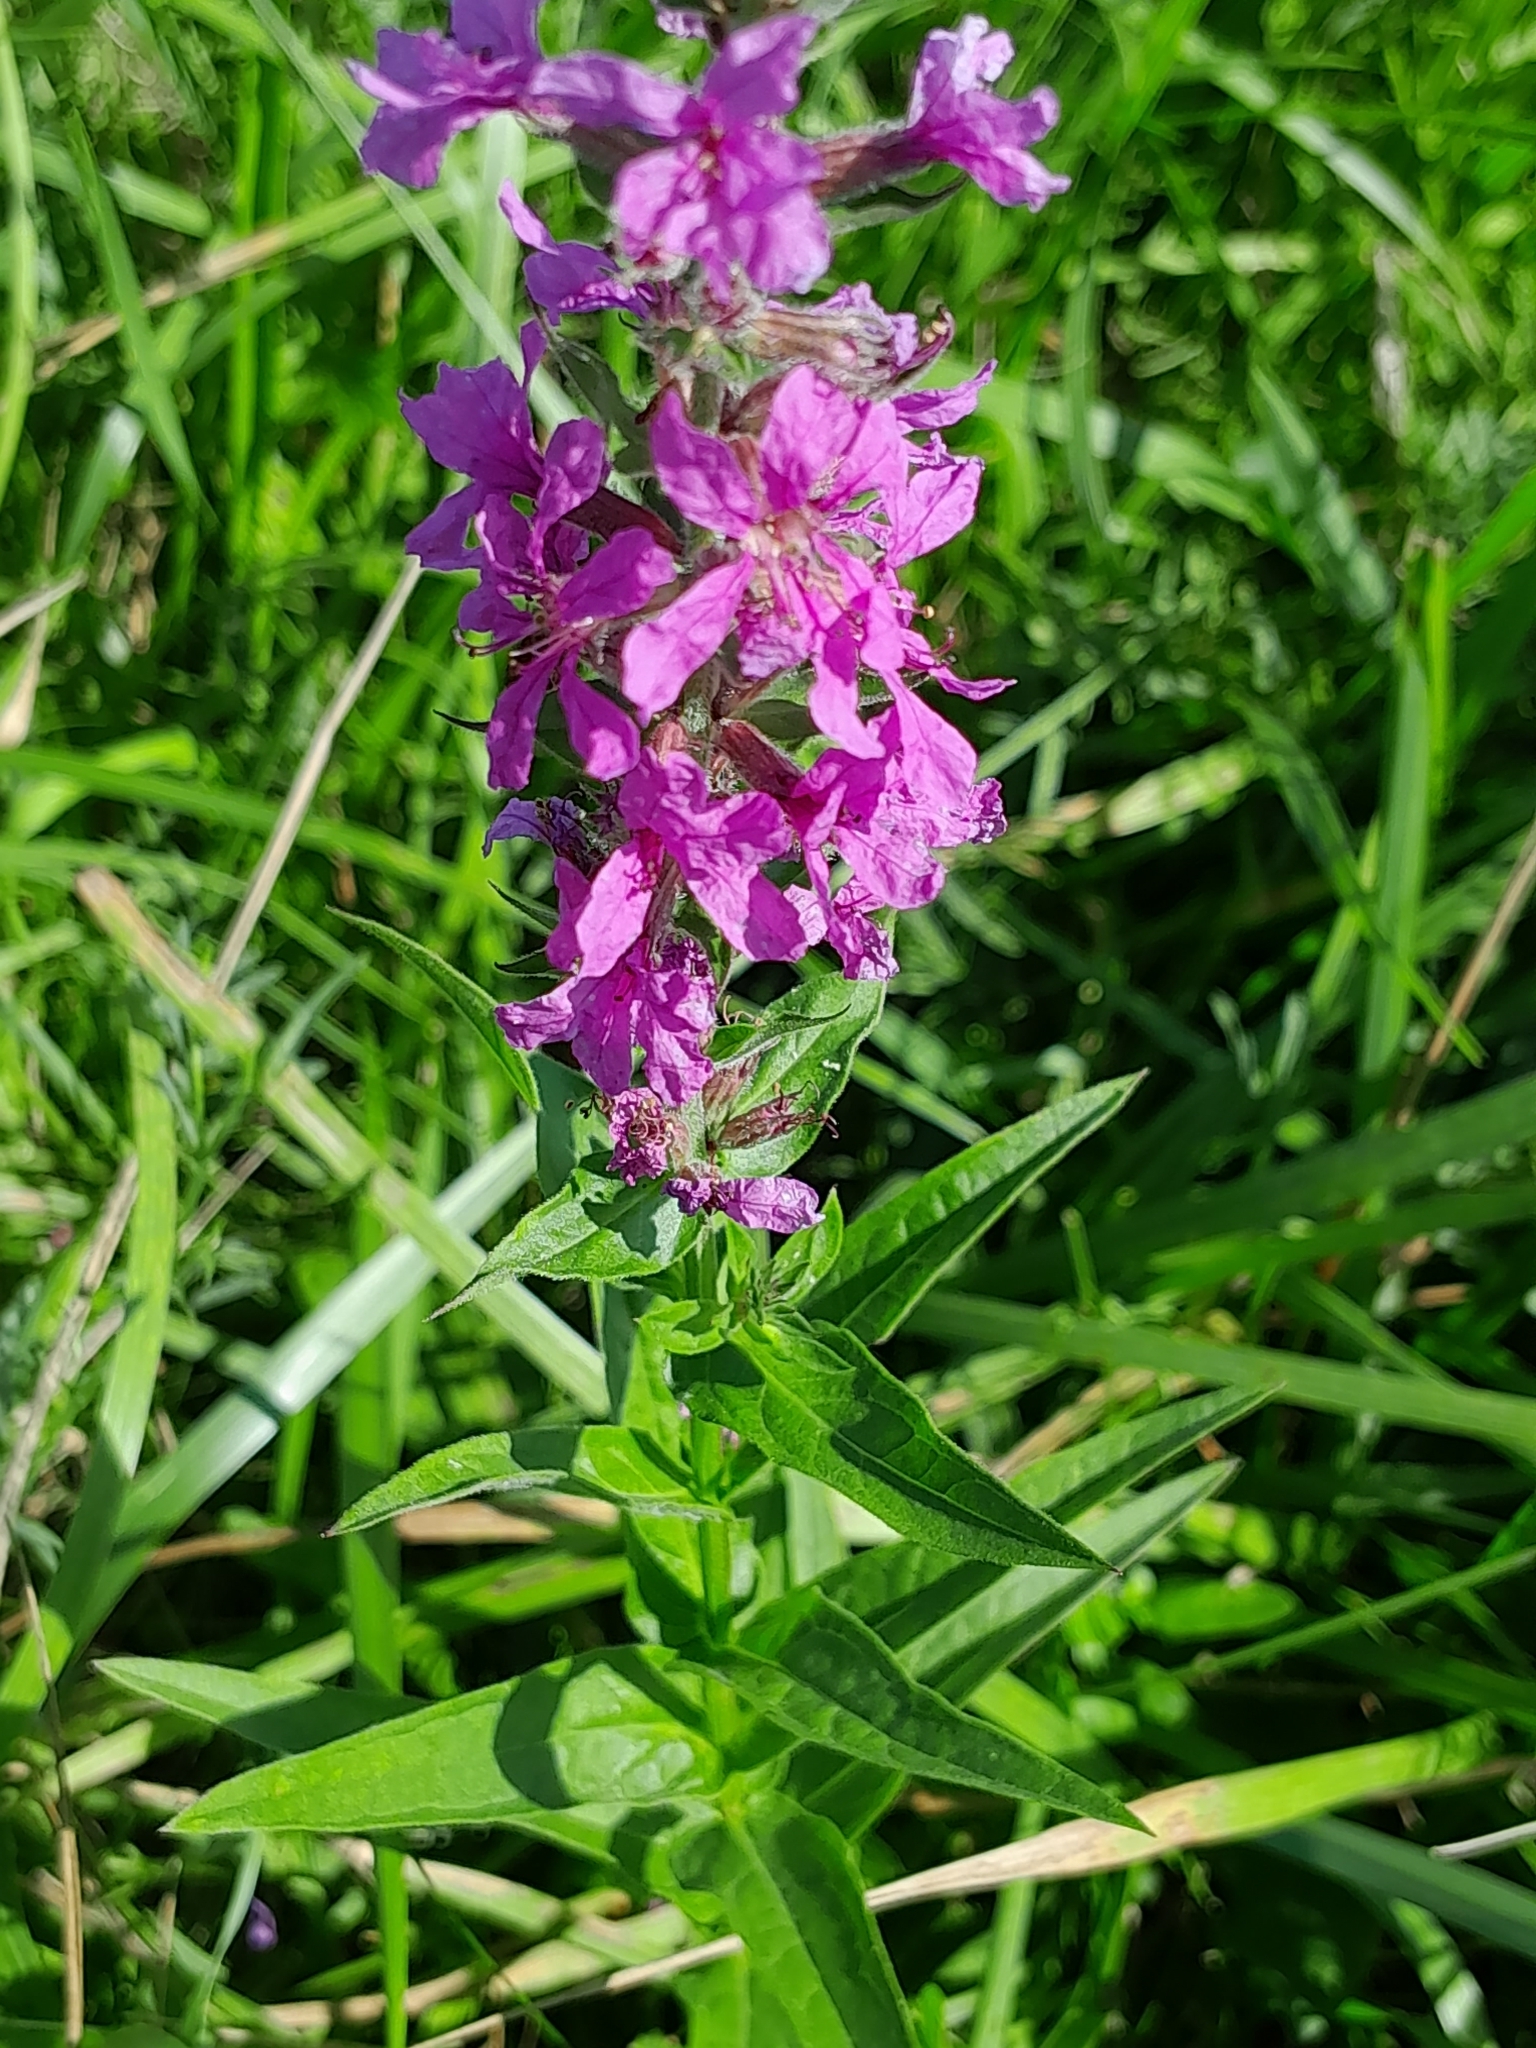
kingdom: Plantae
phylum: Tracheophyta
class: Magnoliopsida
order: Myrtales
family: Lythraceae
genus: Lythrum
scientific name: Lythrum salicaria
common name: Purple loosestrife
